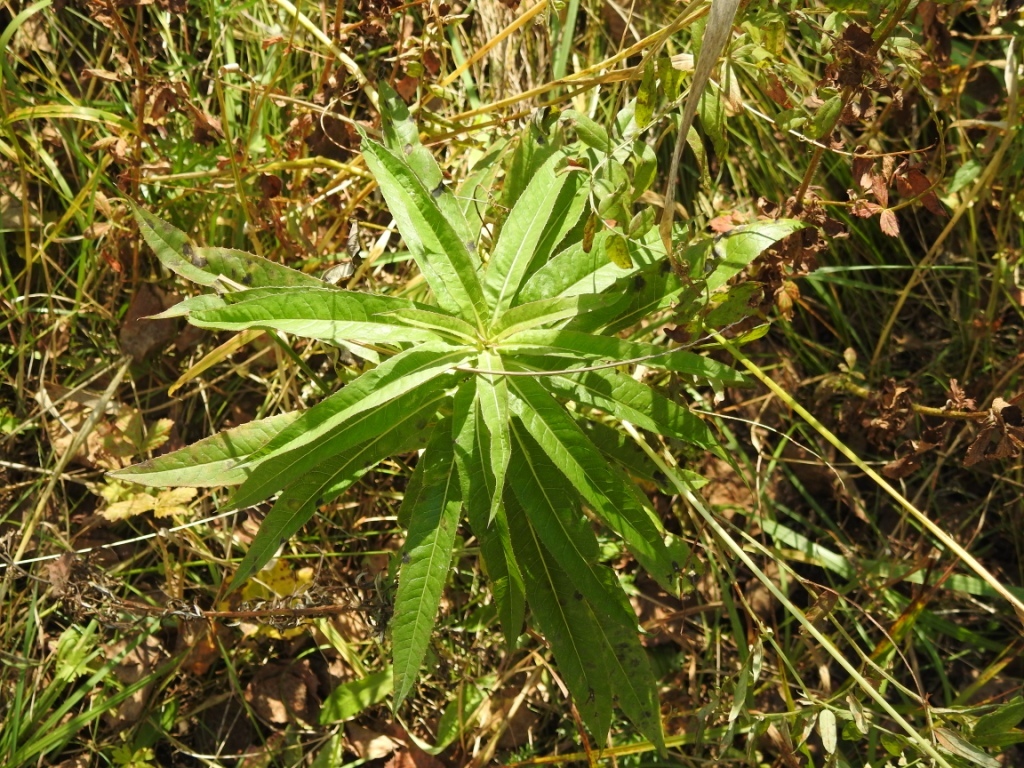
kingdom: Plantae
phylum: Tracheophyta
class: Magnoliopsida
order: Myrtales
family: Onagraceae
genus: Chamaenerion
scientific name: Chamaenerion angustifolium
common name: Fireweed
